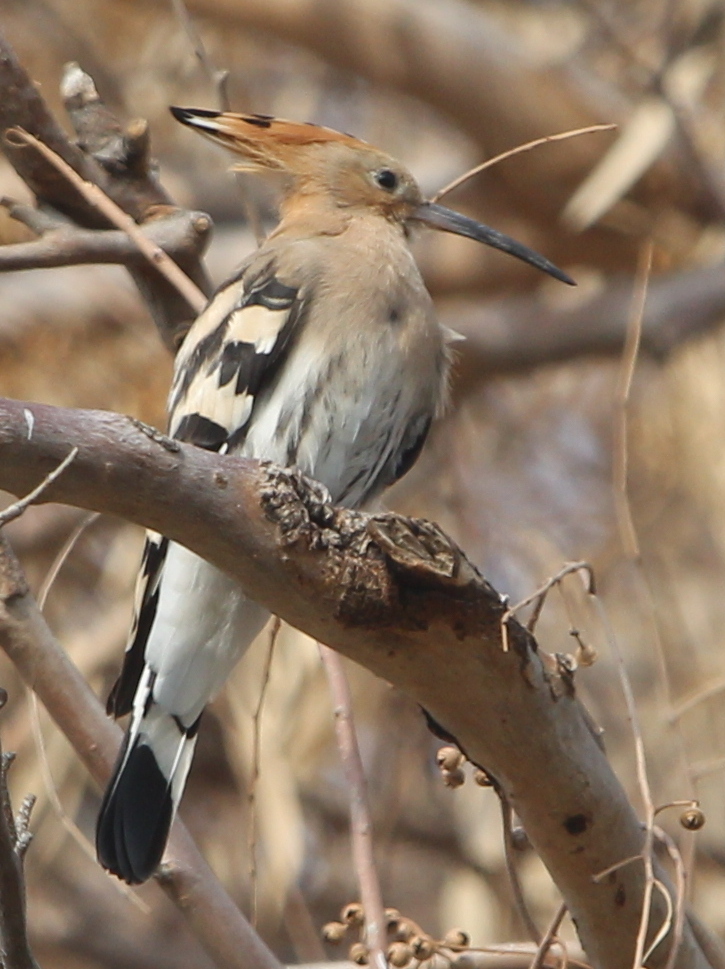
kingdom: Animalia
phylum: Chordata
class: Aves
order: Bucerotiformes
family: Upupidae
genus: Upupa
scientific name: Upupa epops
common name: Eurasian hoopoe
